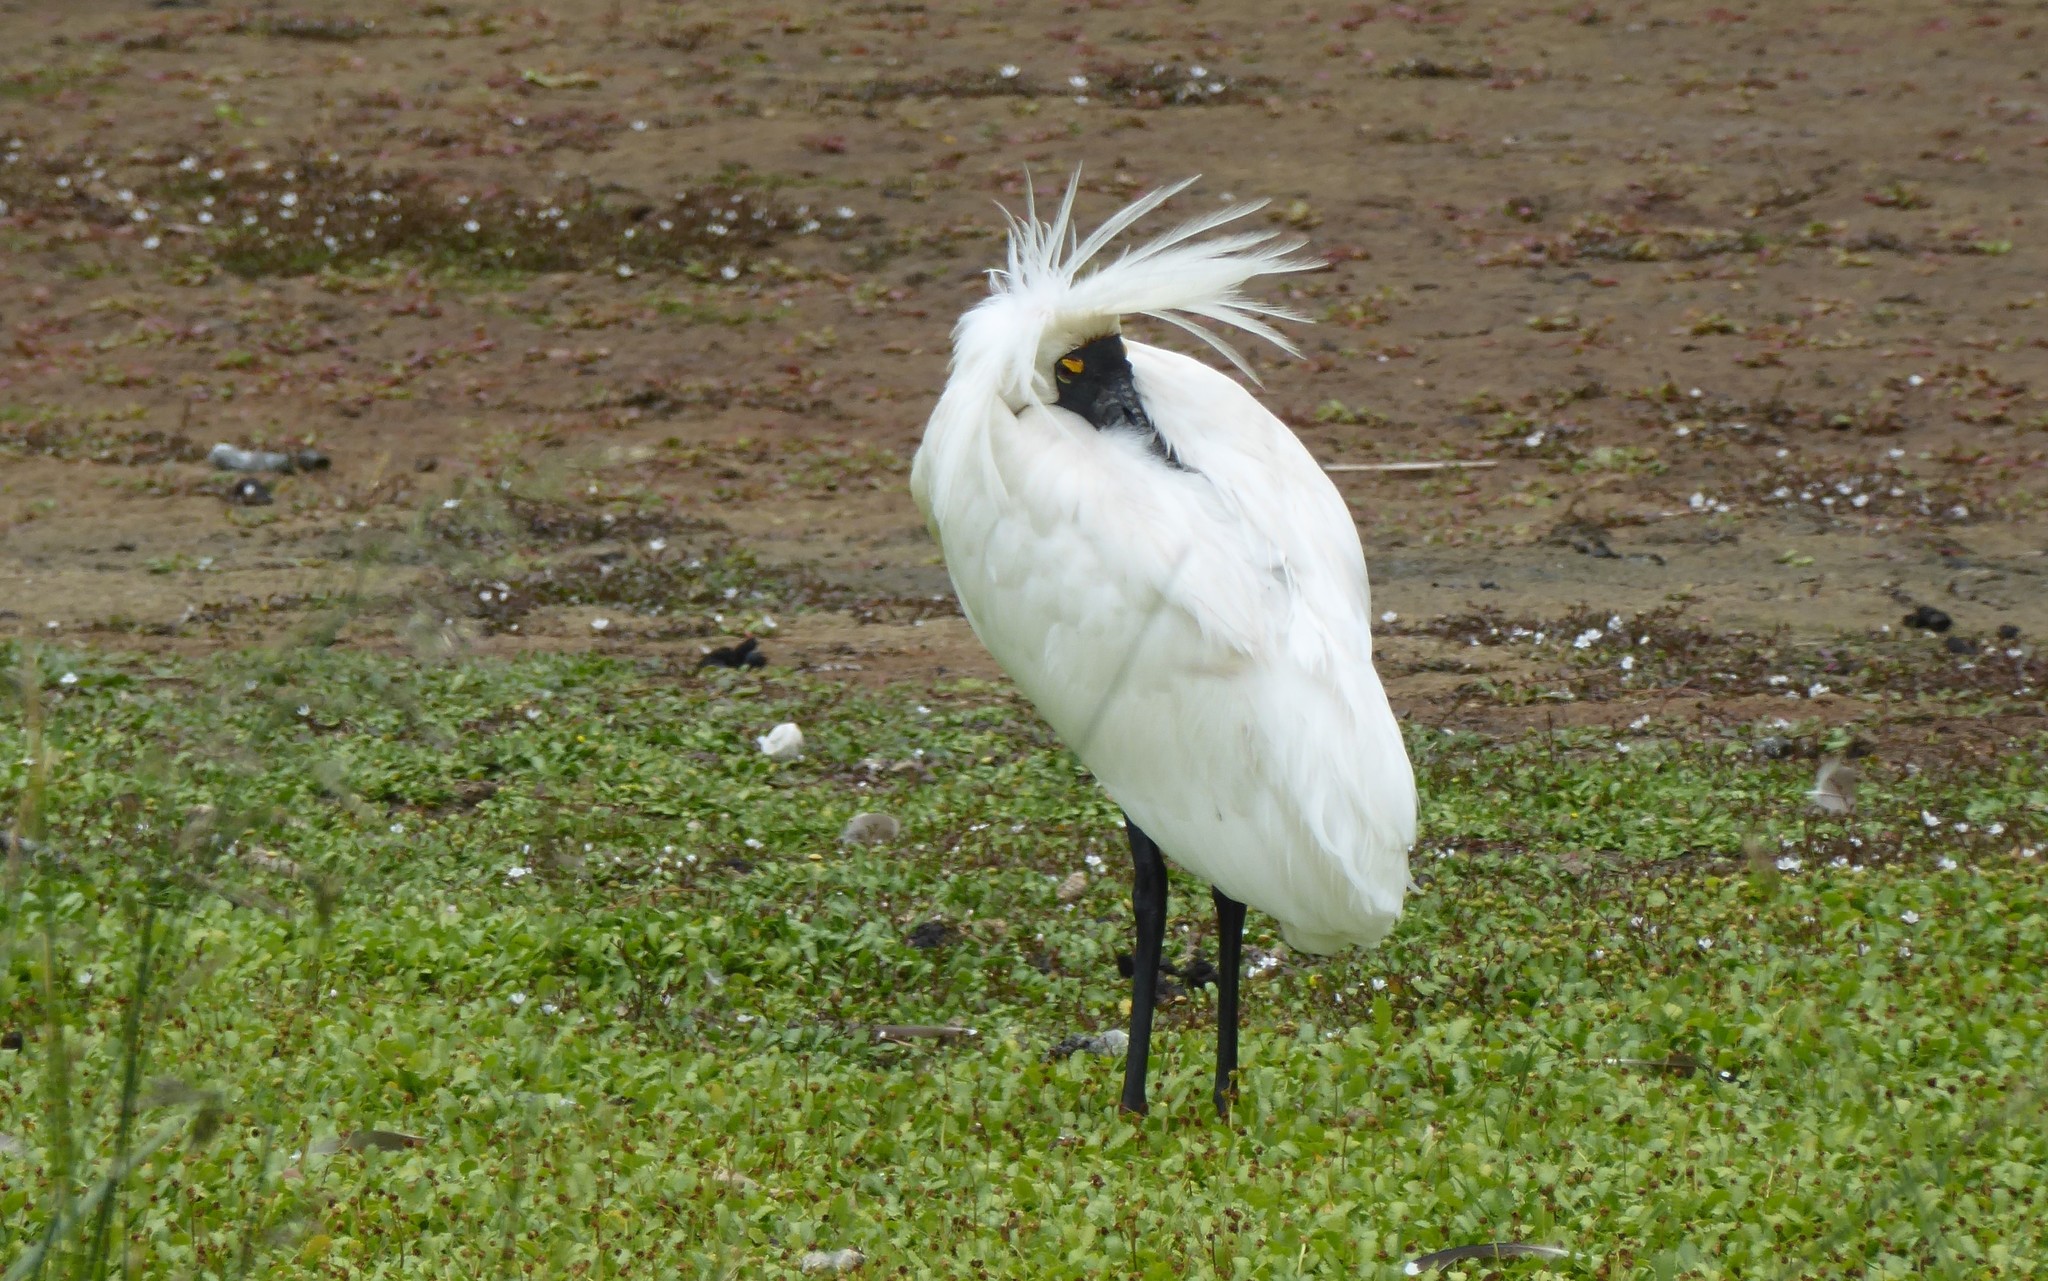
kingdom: Animalia
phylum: Chordata
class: Aves
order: Pelecaniformes
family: Threskiornithidae
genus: Platalea
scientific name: Platalea regia
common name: Royal spoonbill
